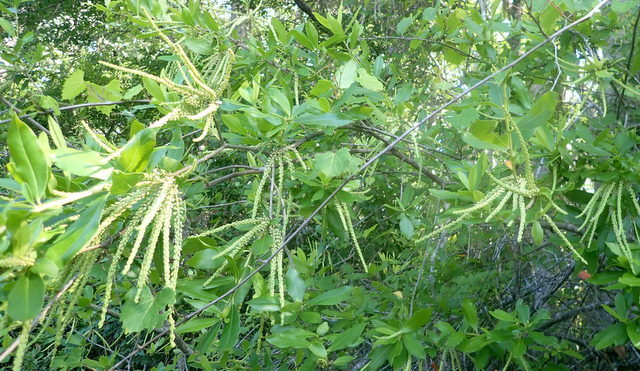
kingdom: Plantae
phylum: Tracheophyta
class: Magnoliopsida
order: Ericales
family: Cyrillaceae
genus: Cyrilla
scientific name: Cyrilla racemiflora
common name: Black titi
